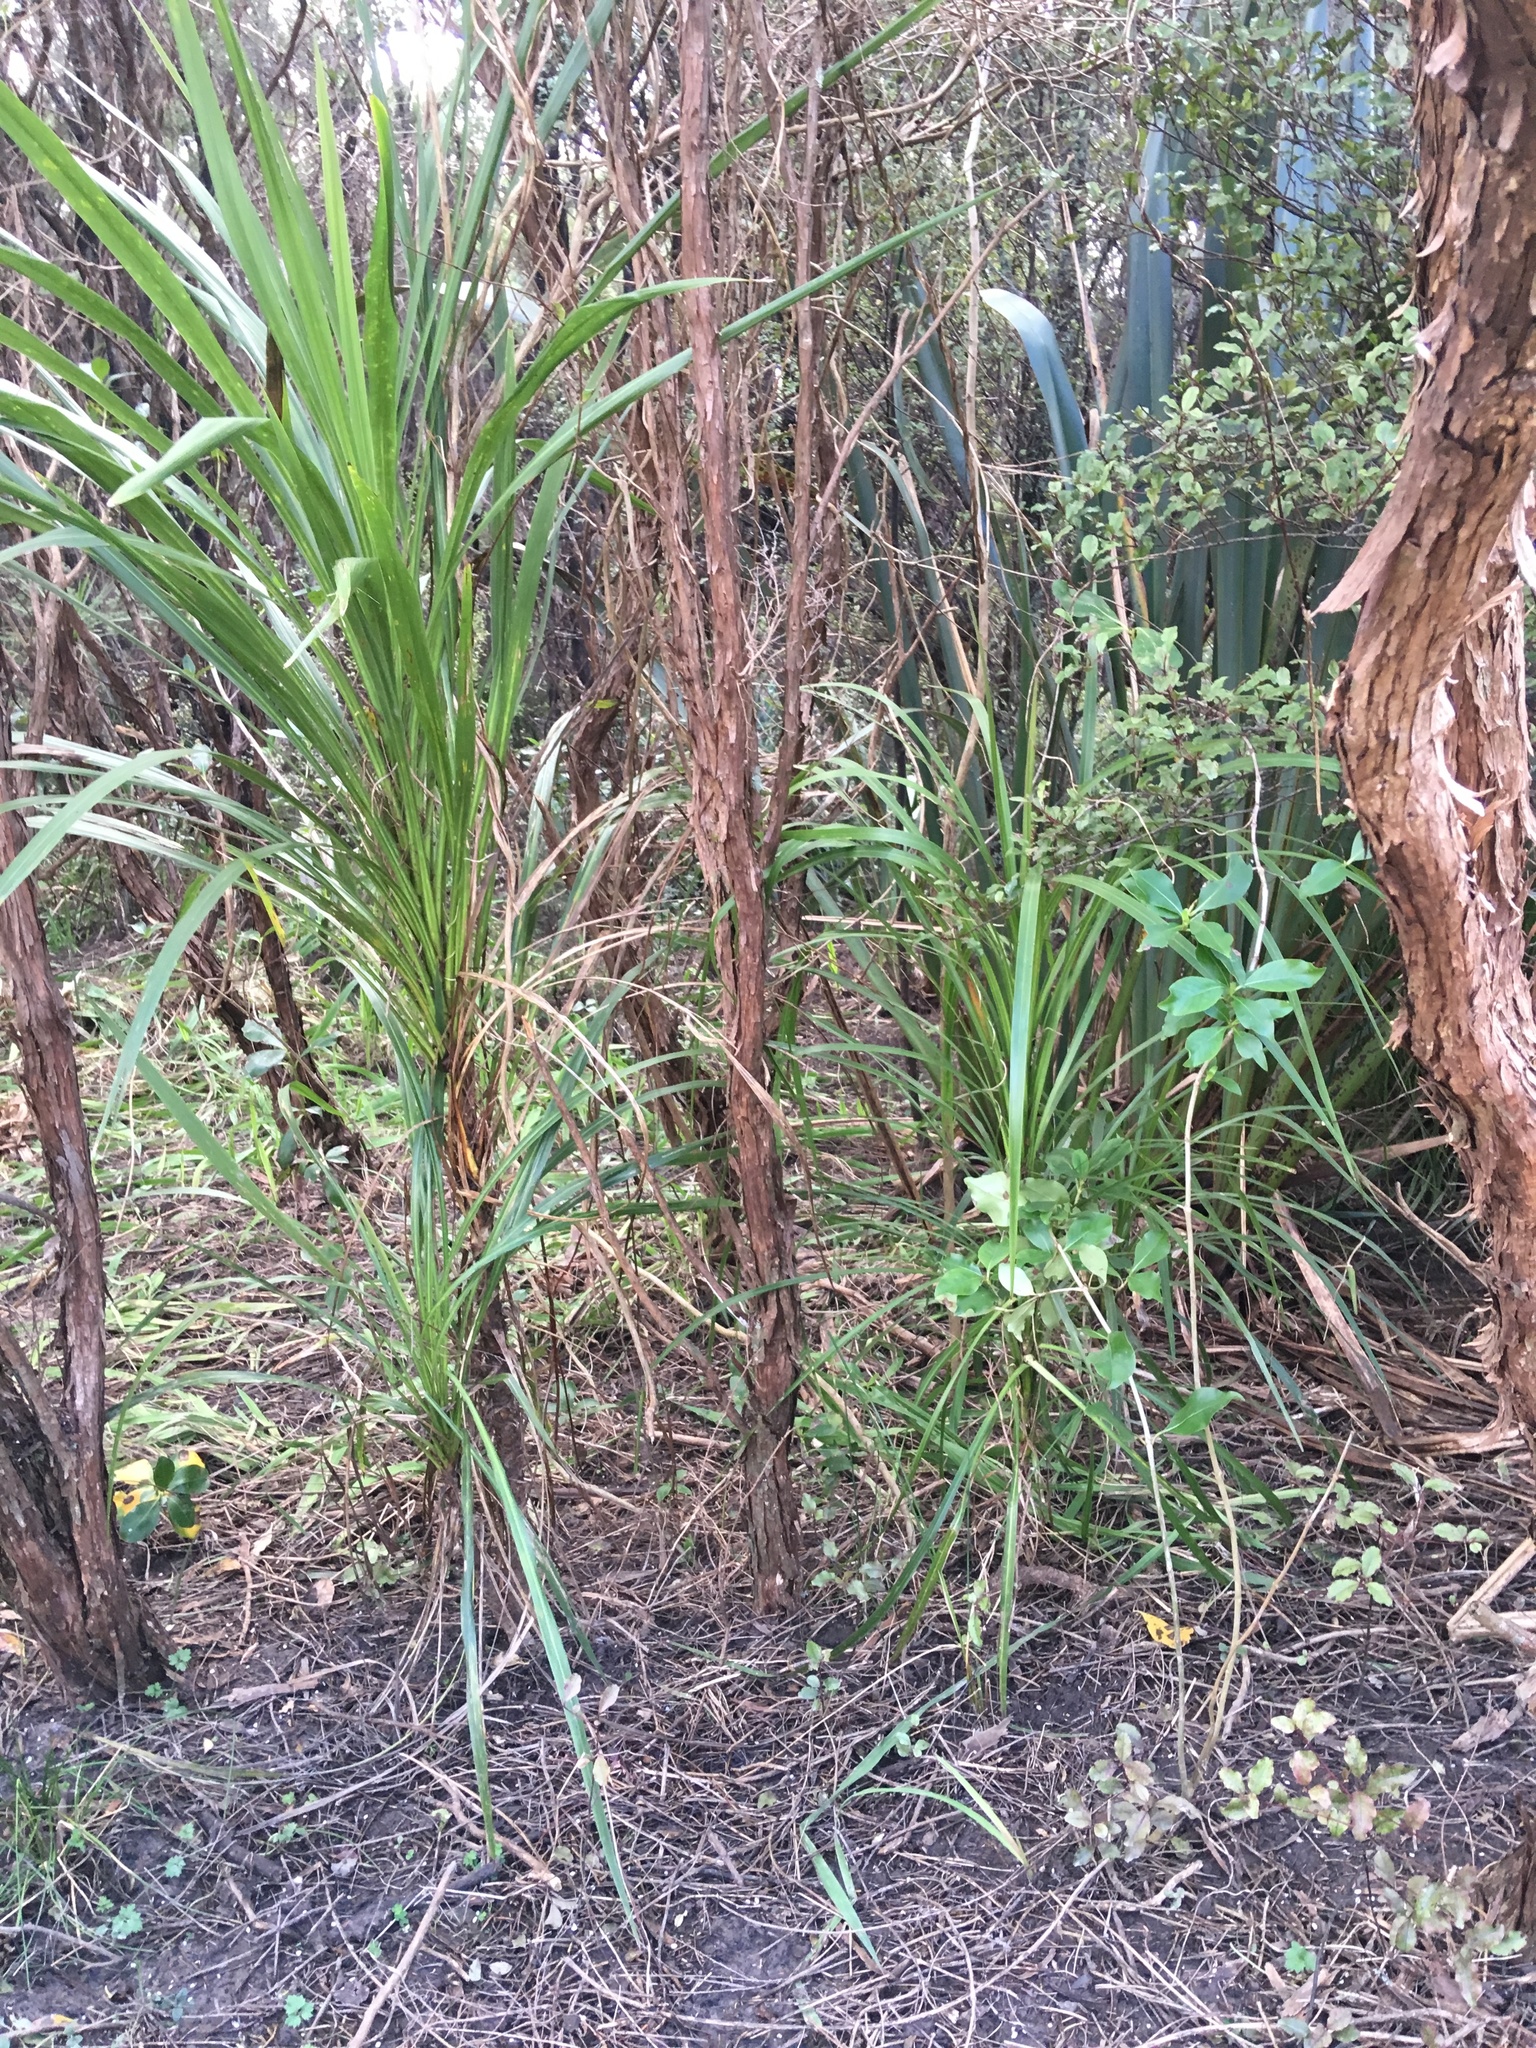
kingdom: Plantae
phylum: Tracheophyta
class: Liliopsida
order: Asparagales
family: Asparagaceae
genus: Cordyline
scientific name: Cordyline australis
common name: Cabbage-palm
